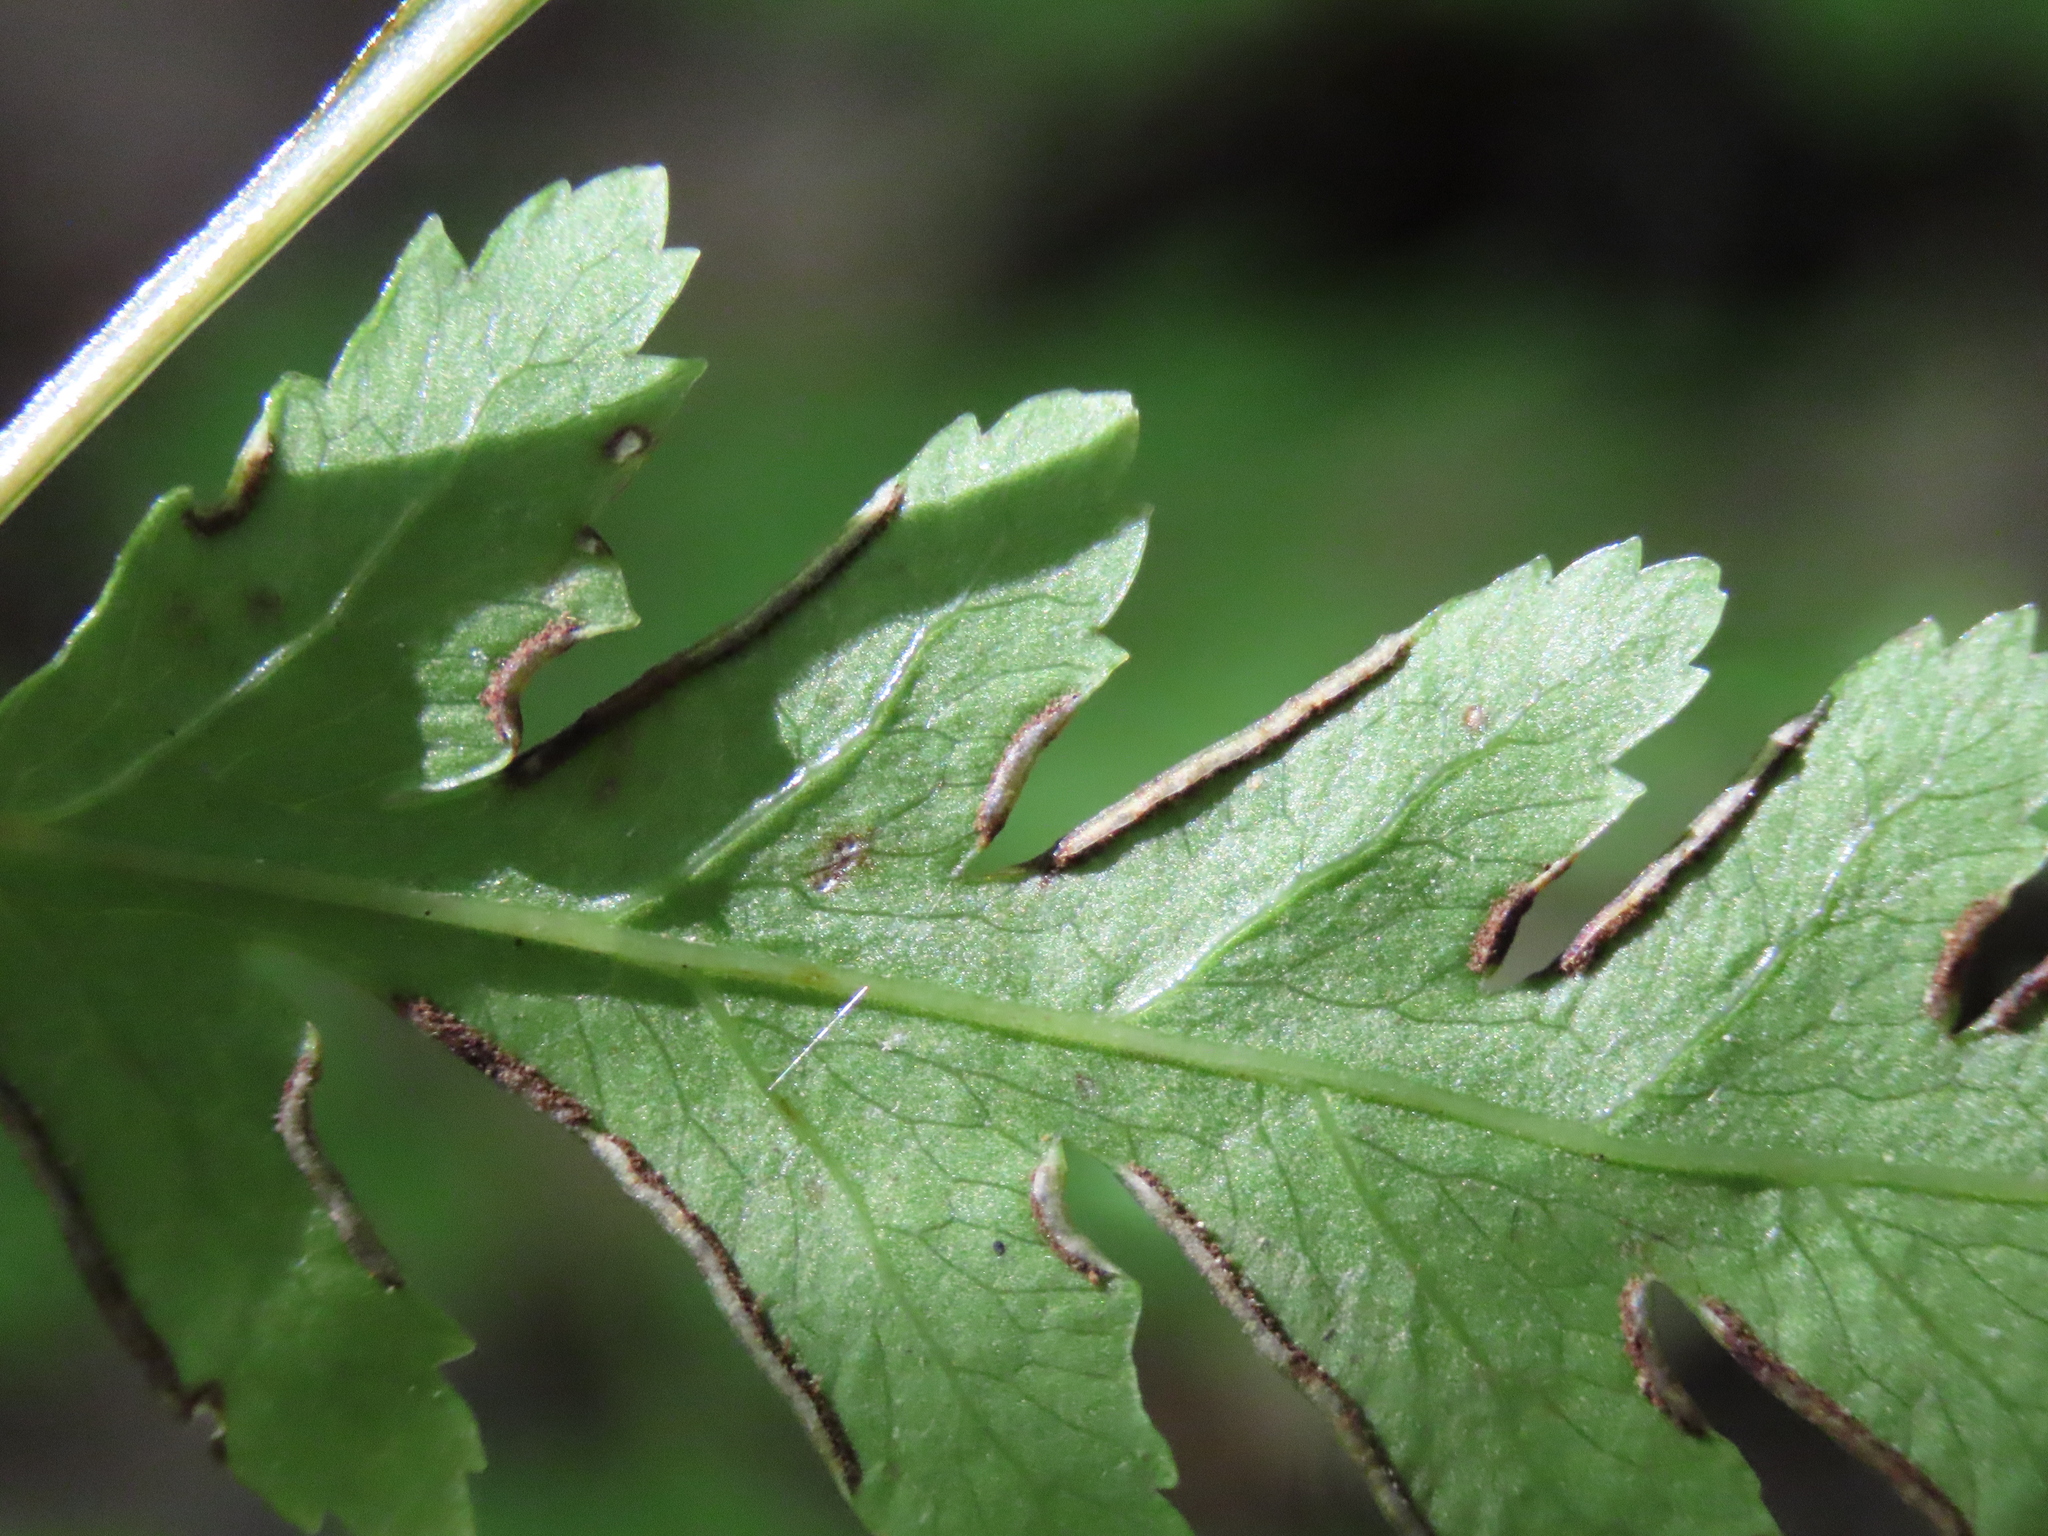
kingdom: Plantae
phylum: Tracheophyta
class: Polypodiopsida
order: Polypodiales
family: Pteridaceae
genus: Pteris
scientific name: Pteris macilenta
